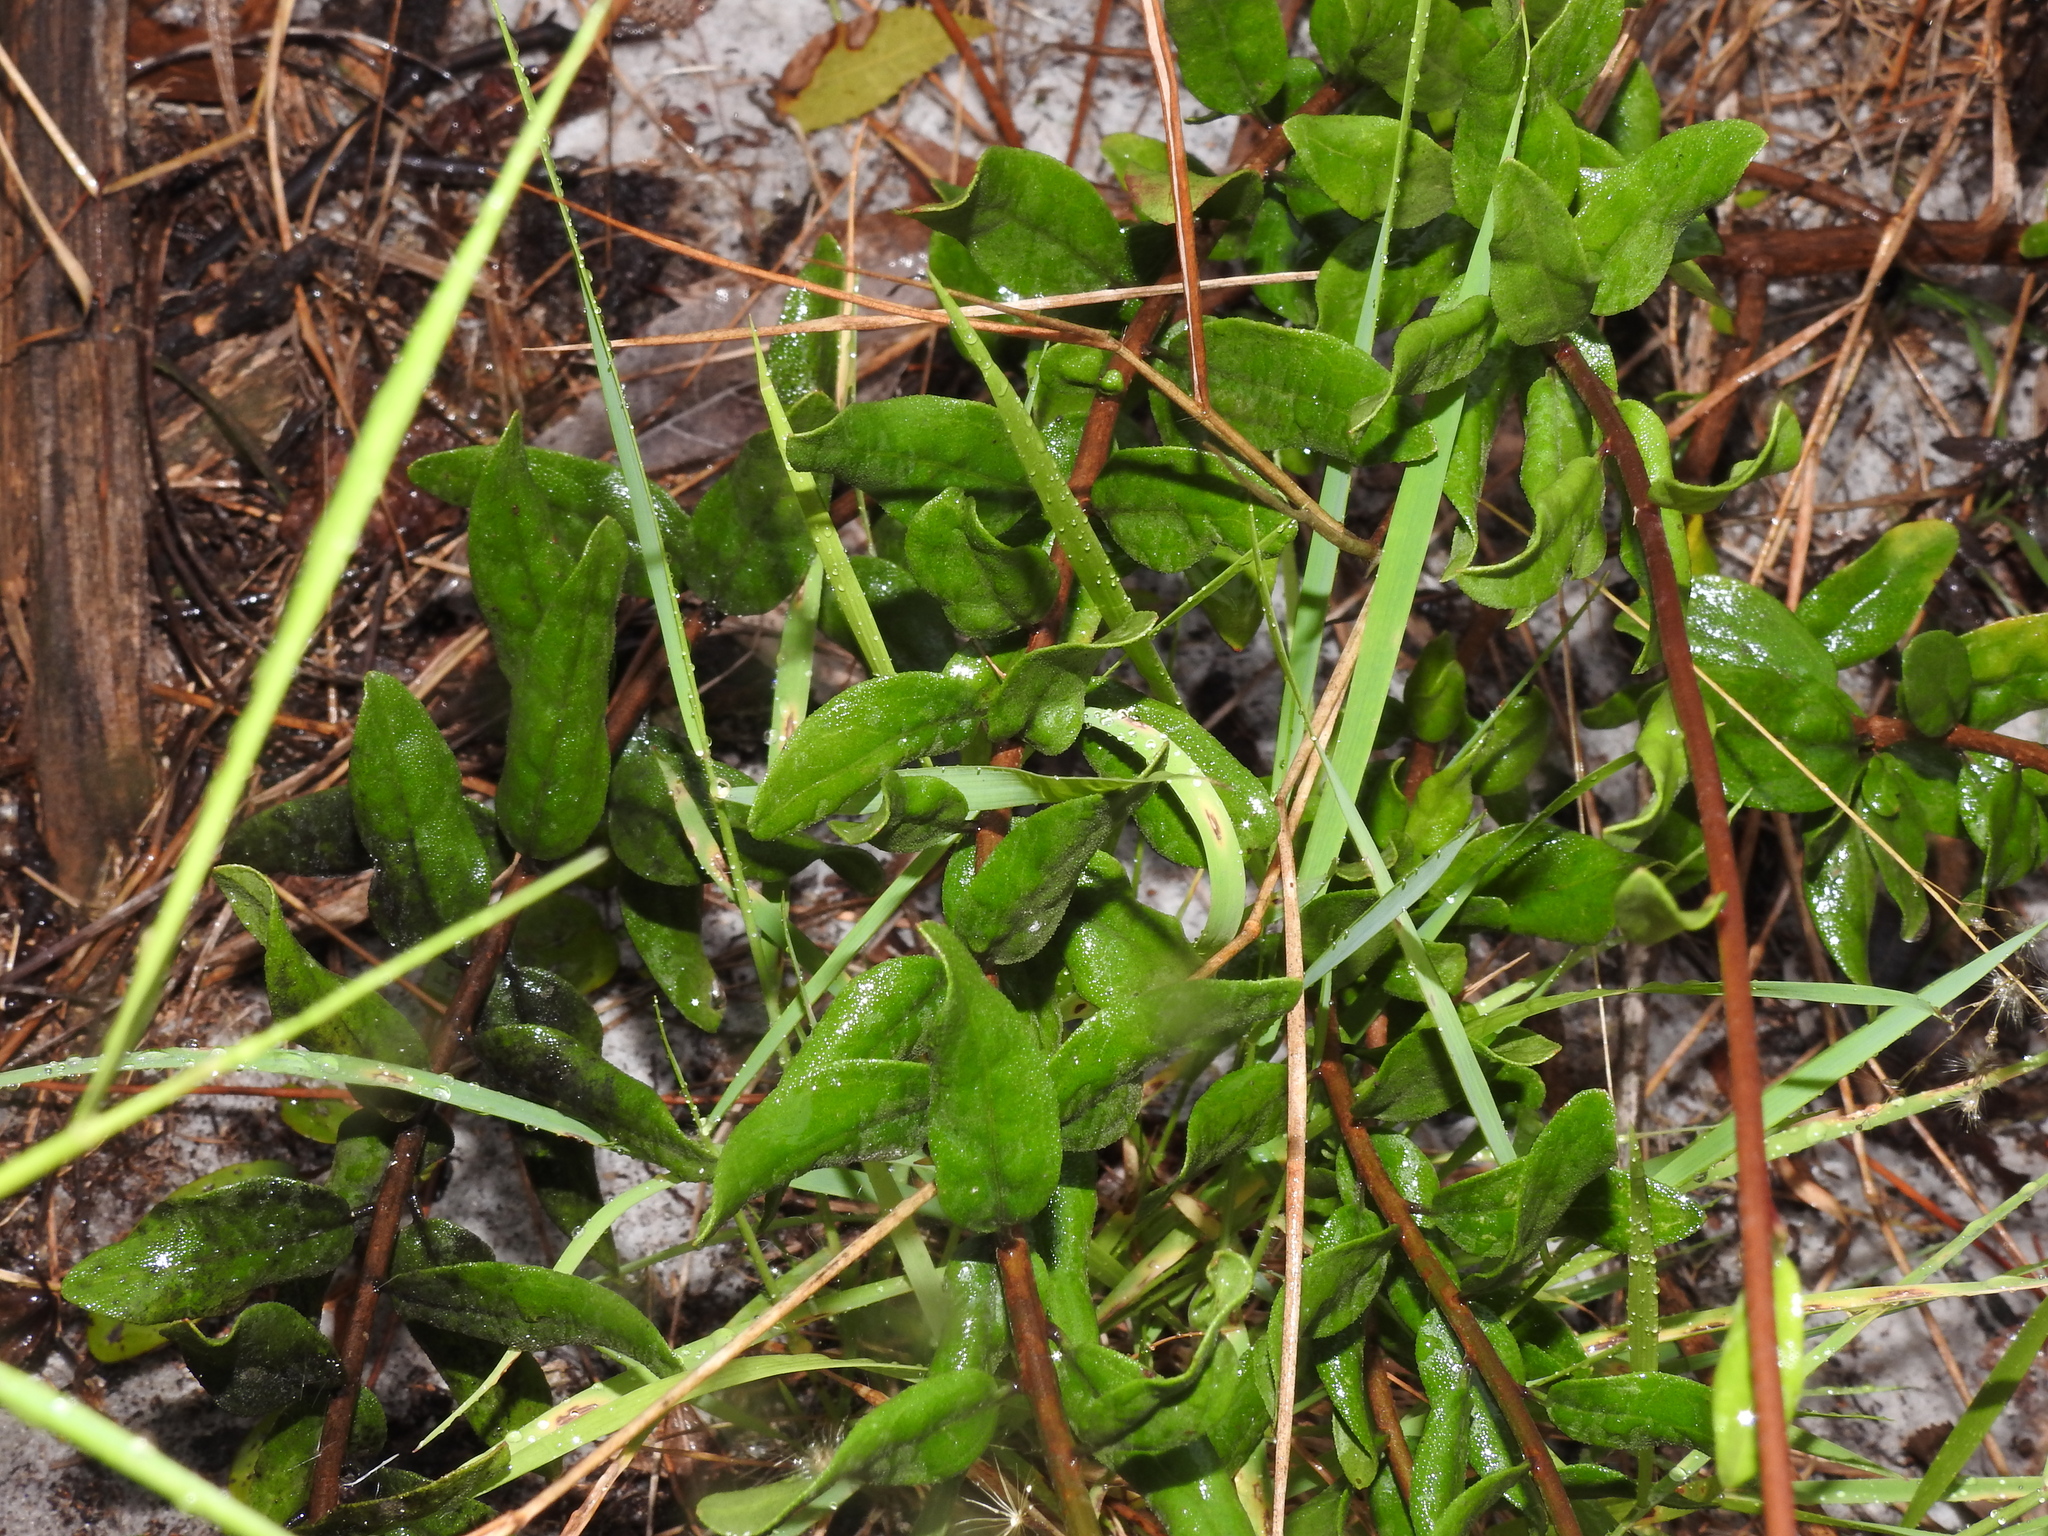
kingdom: Plantae
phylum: Tracheophyta
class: Magnoliopsida
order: Asterales
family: Asteraceae
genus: Palafoxia
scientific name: Palafoxia feayi
